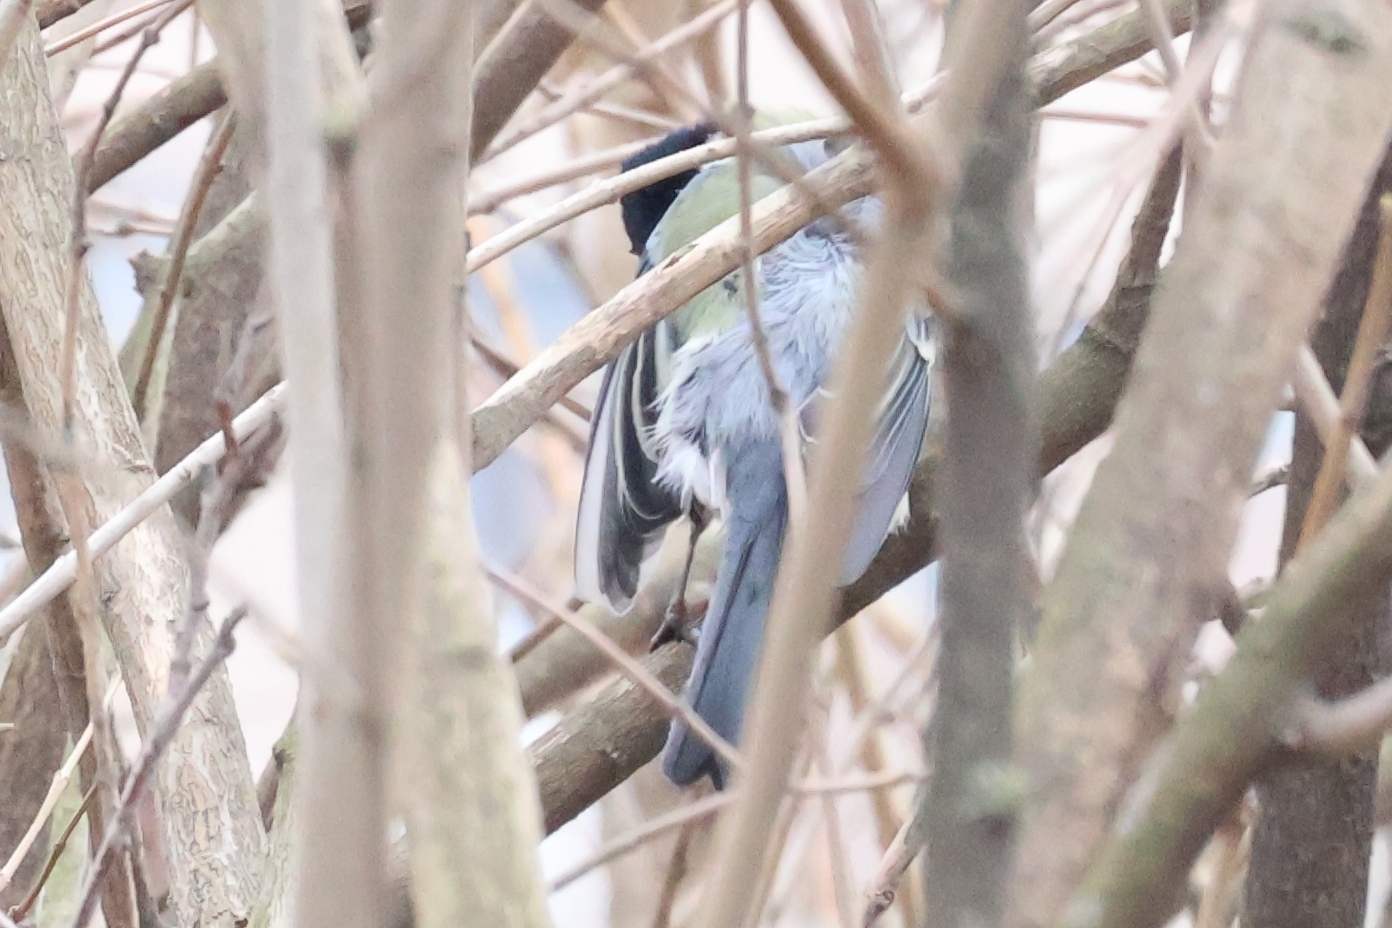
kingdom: Animalia
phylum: Chordata
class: Aves
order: Passeriformes
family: Paridae
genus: Parus
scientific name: Parus major
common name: Great tit
